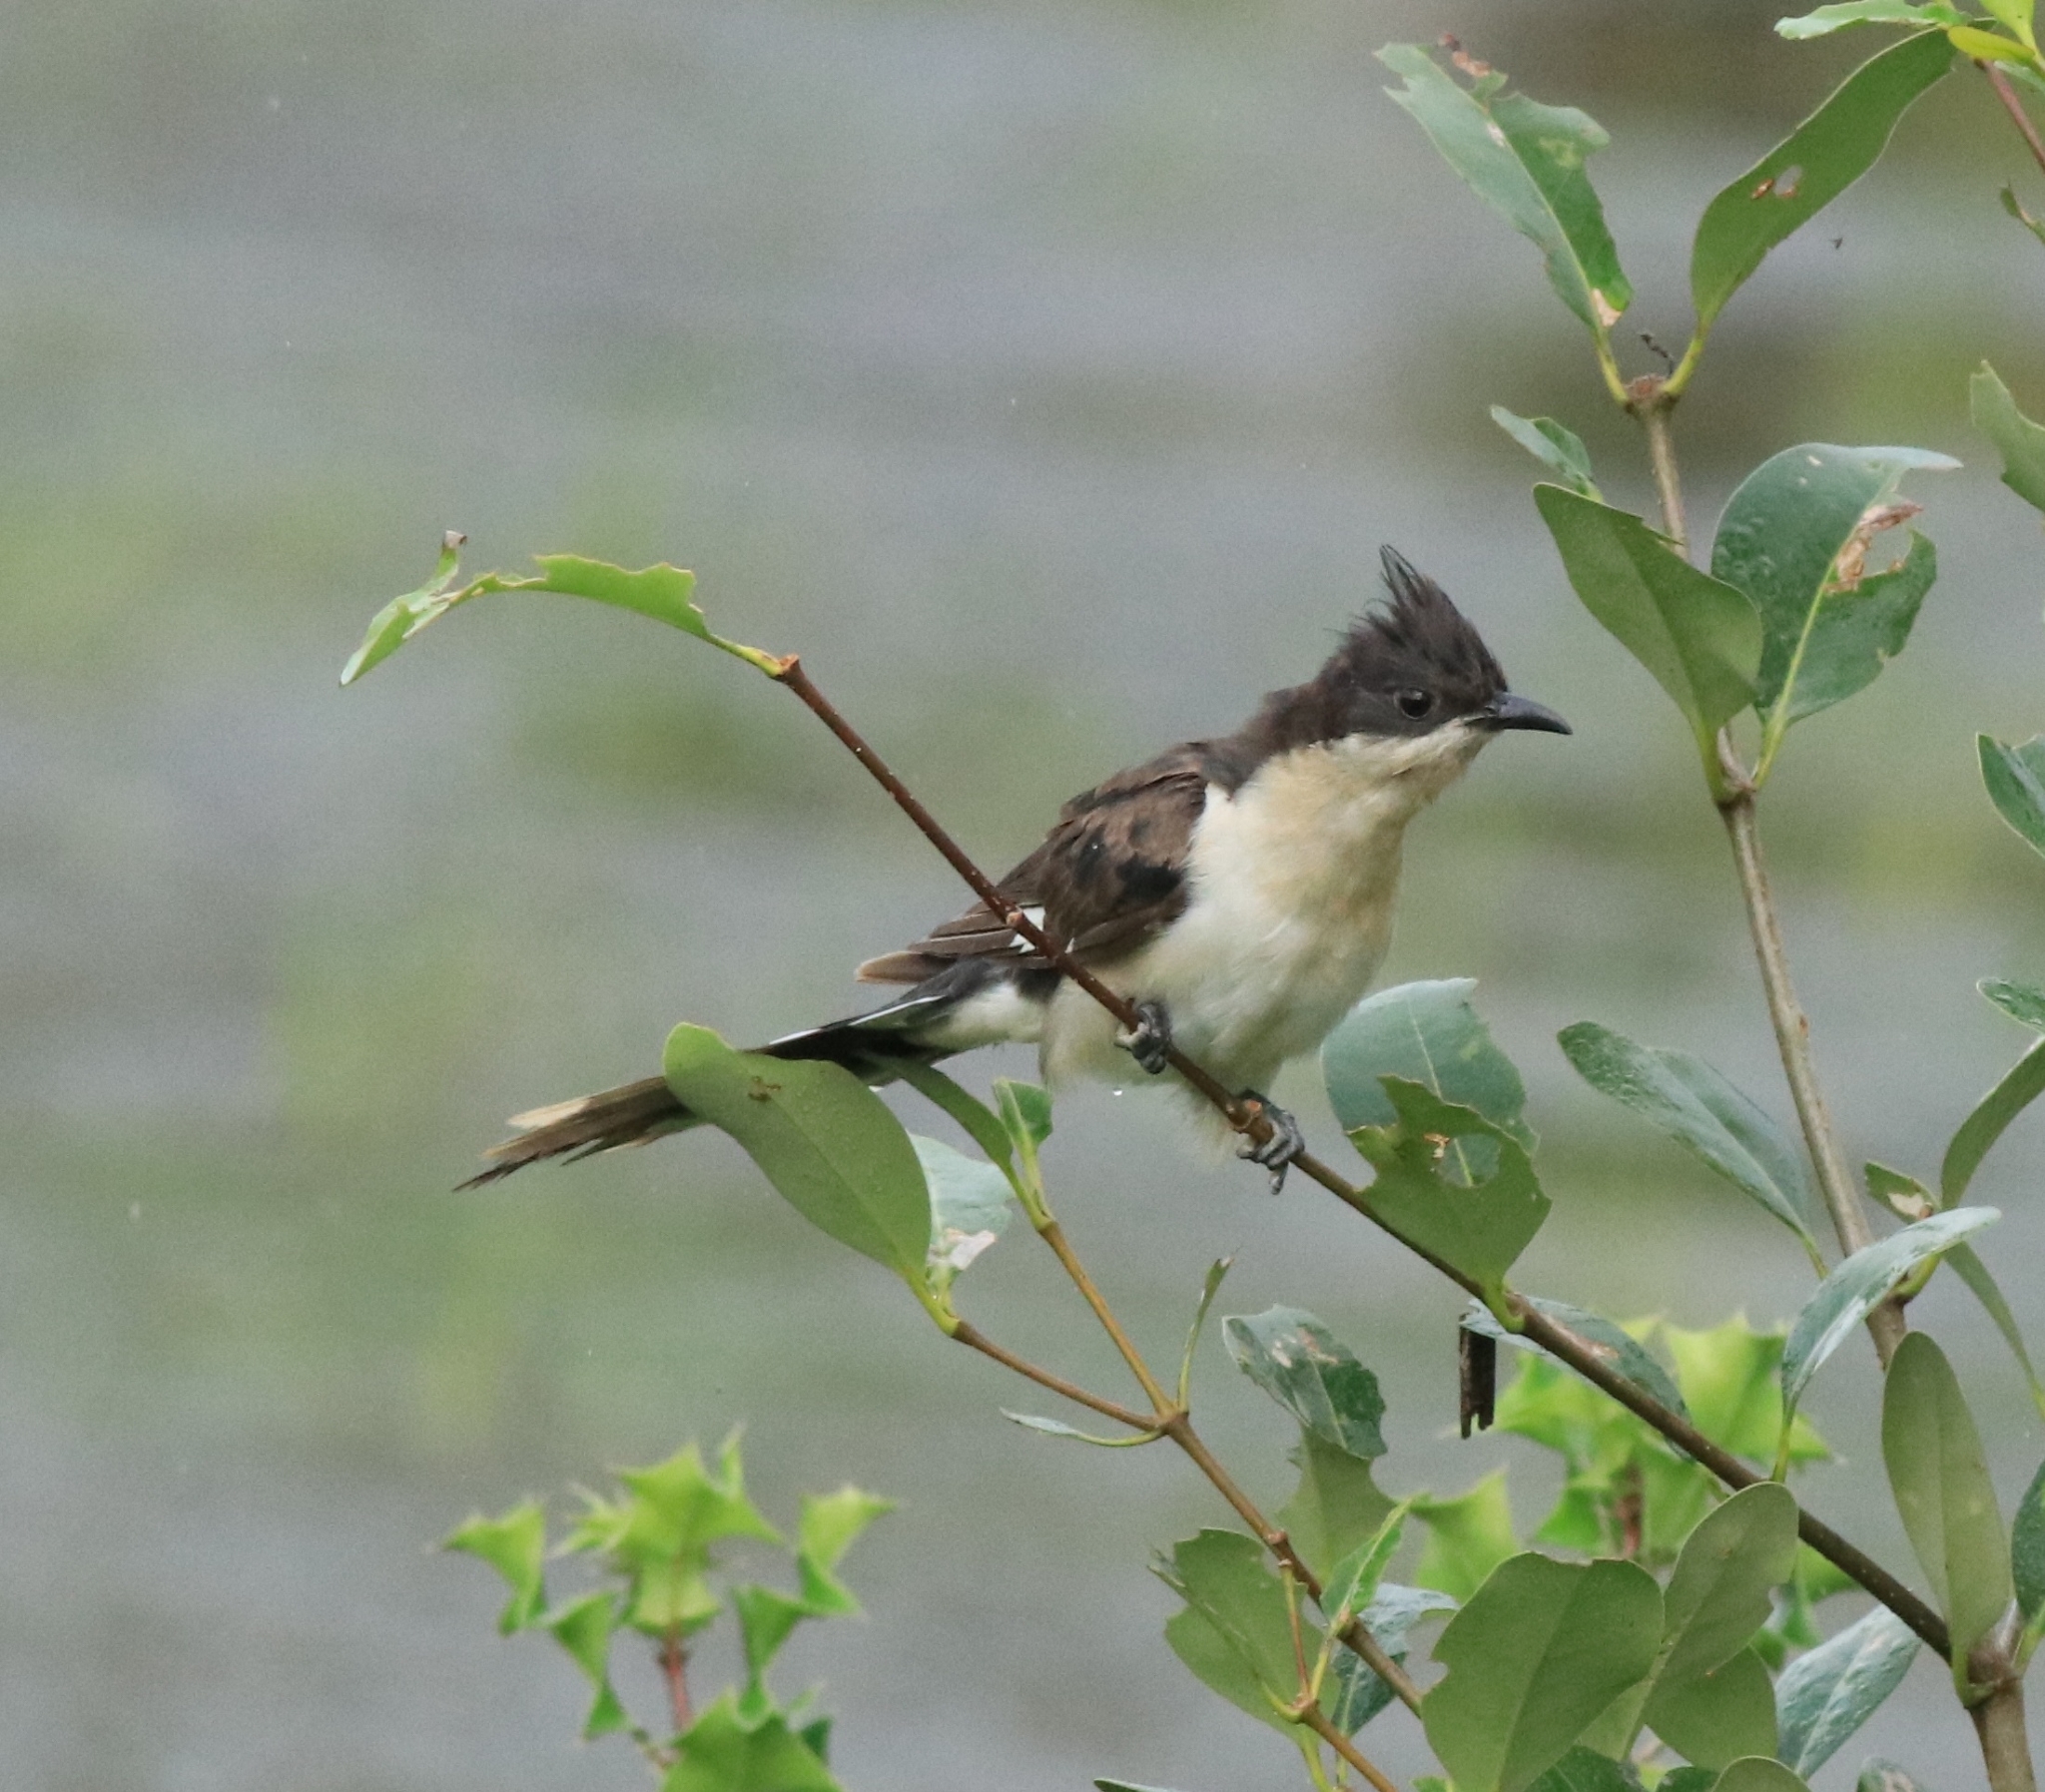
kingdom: Animalia
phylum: Chordata
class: Aves
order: Cuculiformes
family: Cuculidae
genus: Clamator
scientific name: Clamator jacobinus
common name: Jacobin cuckoo
